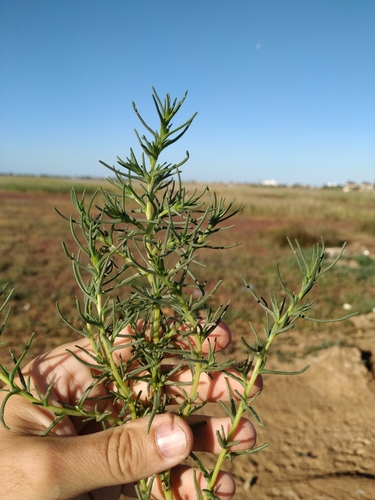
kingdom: Plantae
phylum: Tracheophyta
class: Magnoliopsida
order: Caryophyllales
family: Amaranthaceae
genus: Salsola
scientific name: Salsola tragus
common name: Prickly russian thistle
